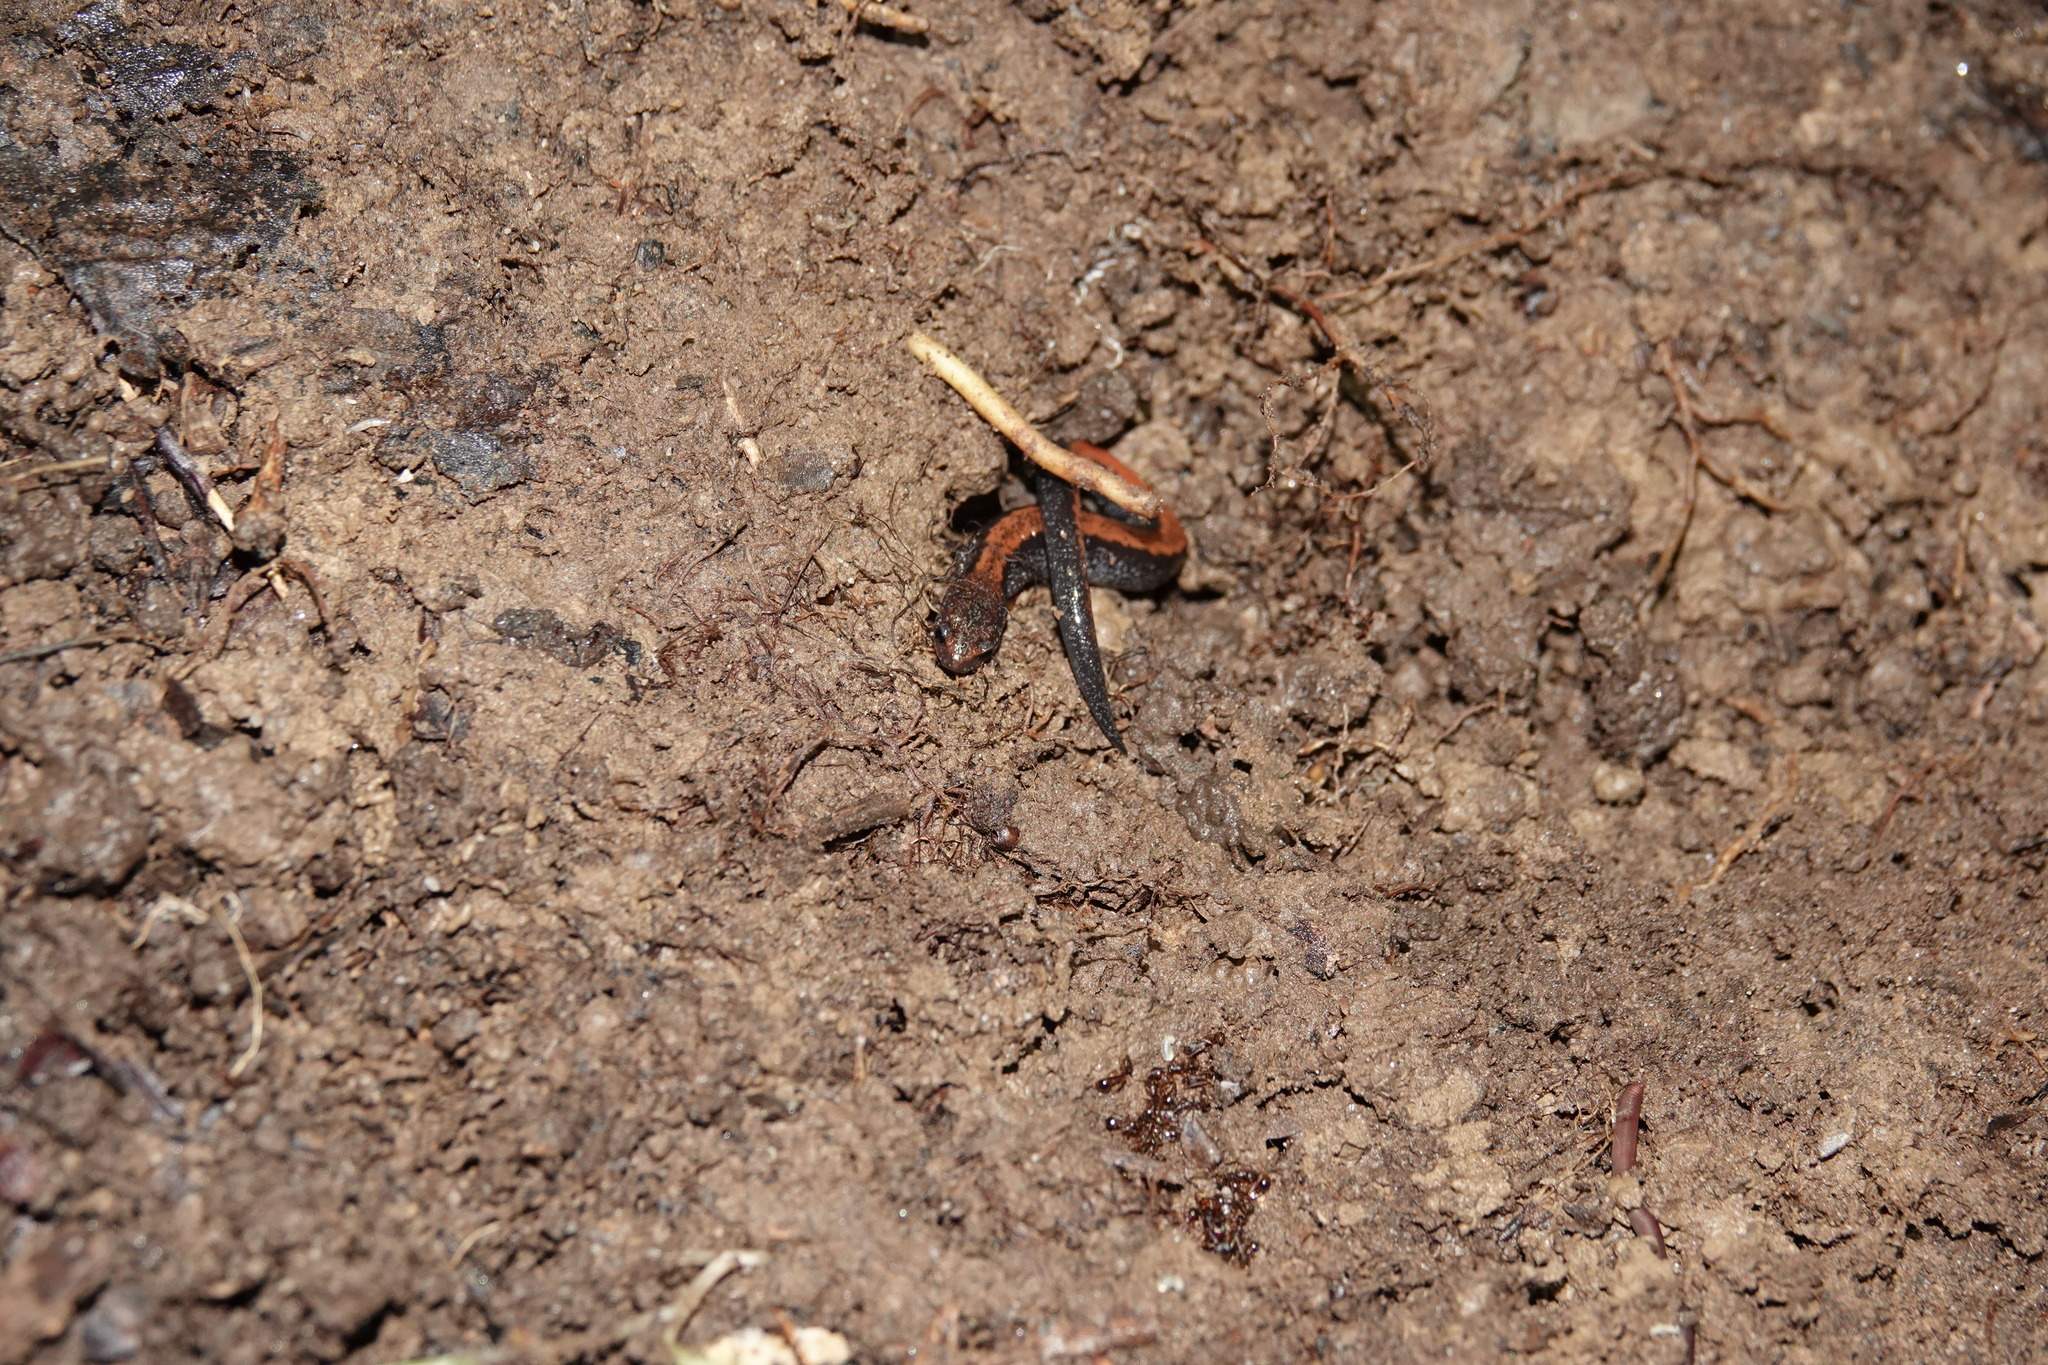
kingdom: Animalia
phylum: Chordata
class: Amphibia
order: Caudata
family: Plethodontidae
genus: Plethodon
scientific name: Plethodon cinereus
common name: Redback salamander
